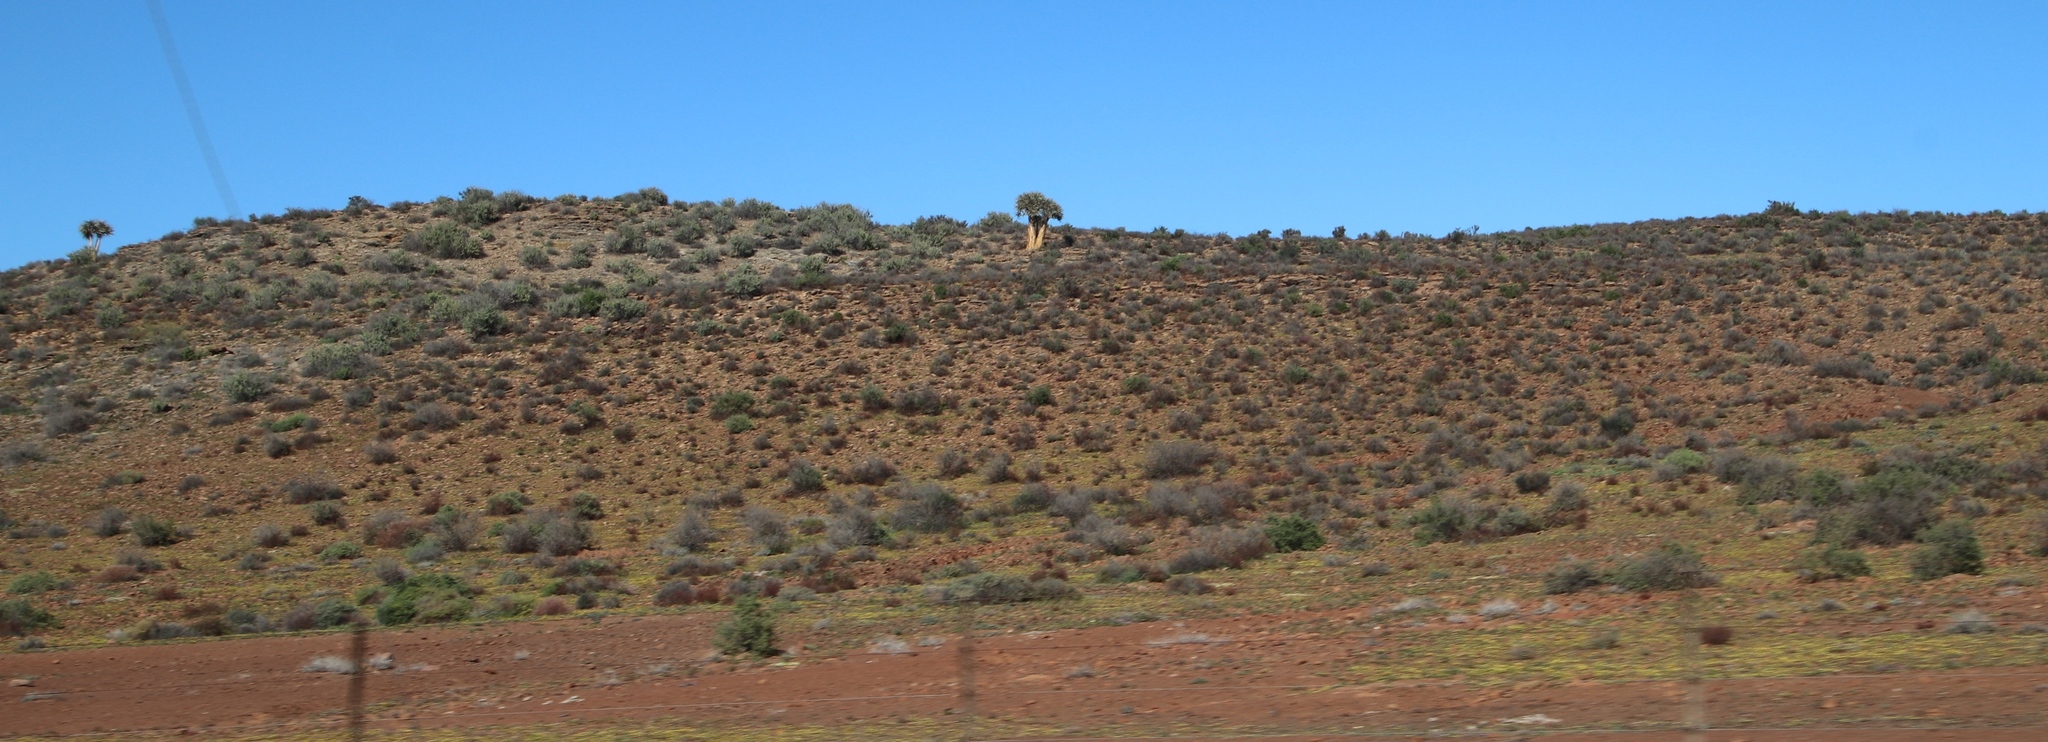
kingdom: Plantae
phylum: Tracheophyta
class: Liliopsida
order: Asparagales
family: Asphodelaceae
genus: Aloidendron
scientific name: Aloidendron dichotomum
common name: Quiver tree
